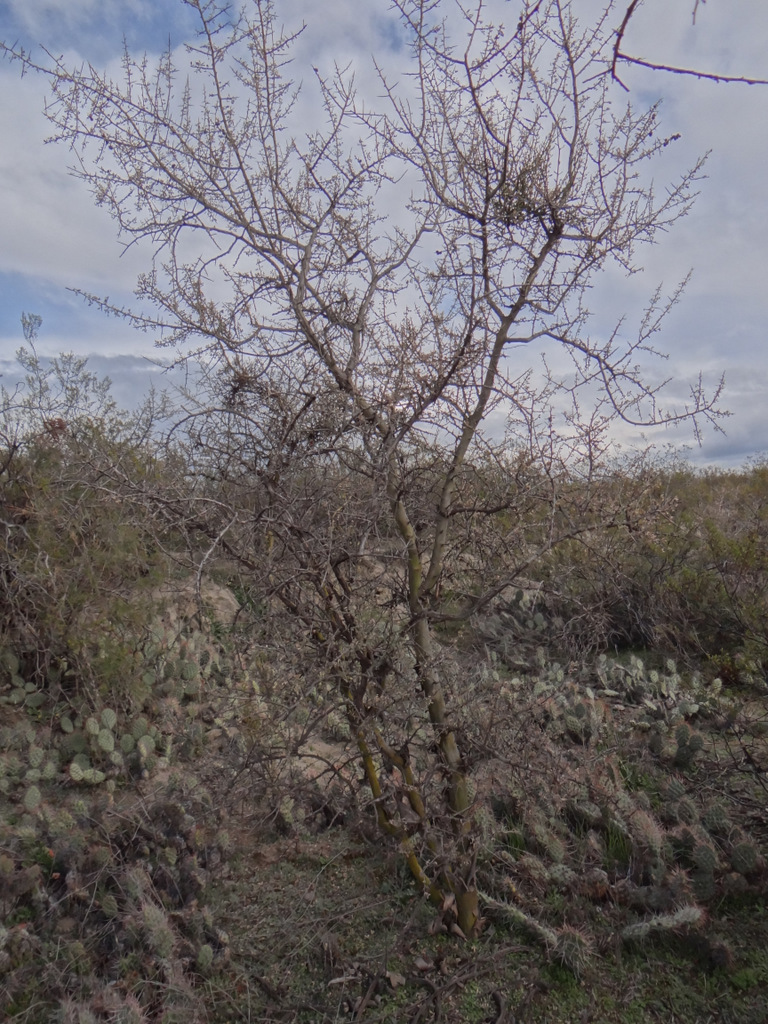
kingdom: Plantae
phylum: Tracheophyta
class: Magnoliopsida
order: Fabales
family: Fabaceae
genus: Geoffroea
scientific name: Geoffroea decorticans
